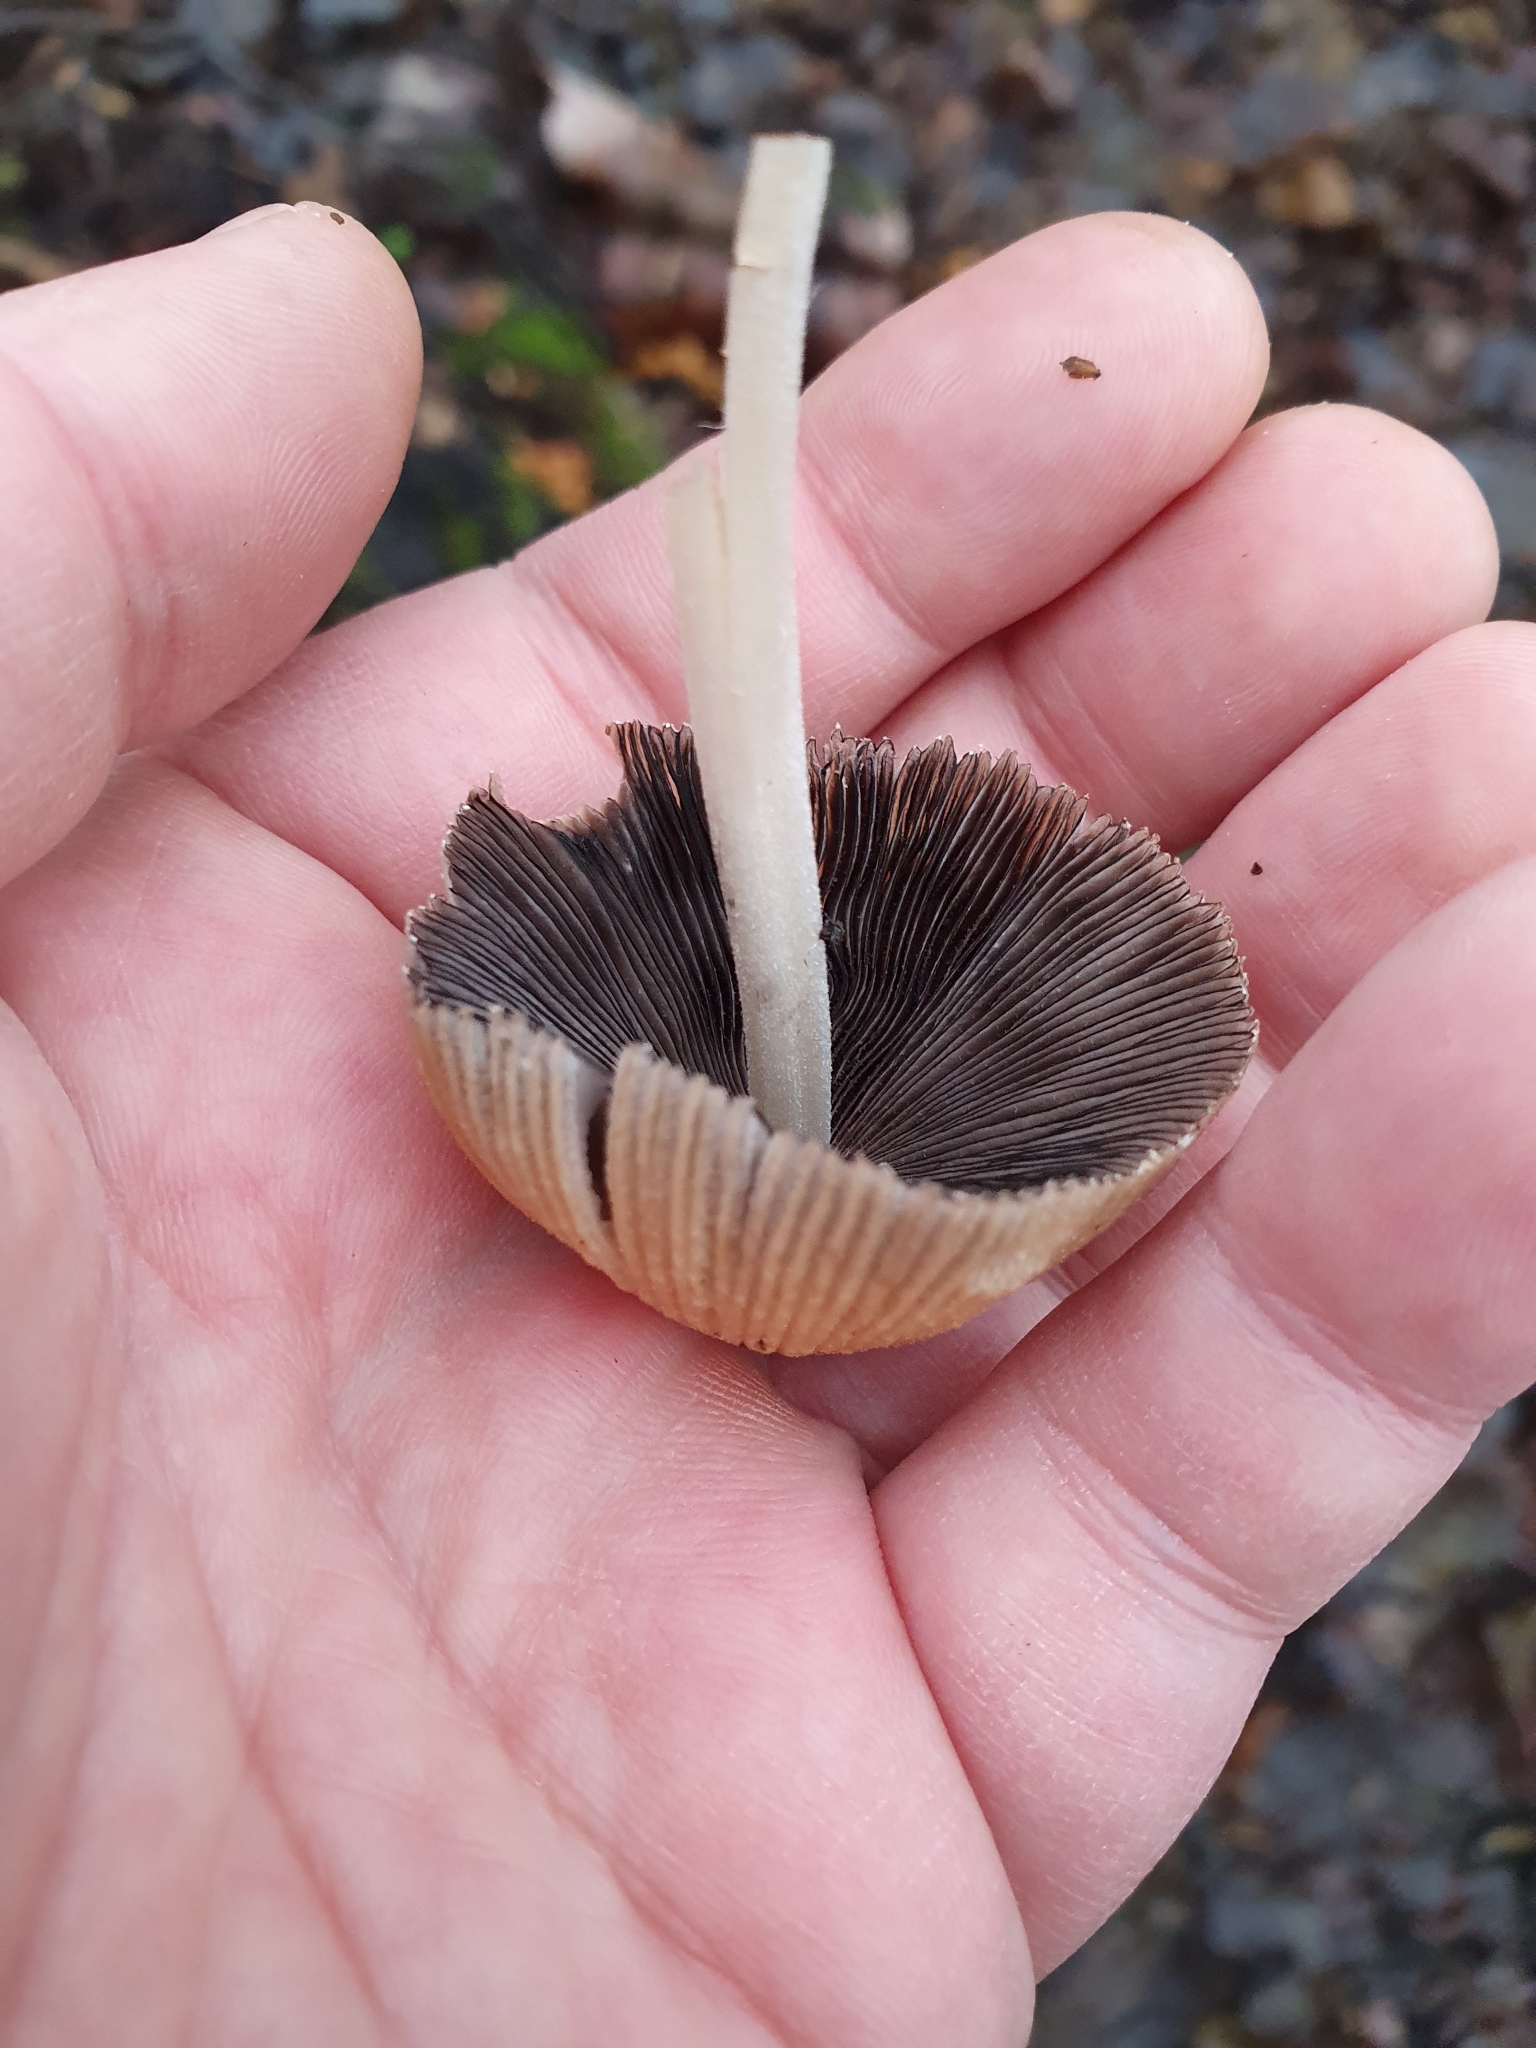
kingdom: Fungi
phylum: Basidiomycota
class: Agaricomycetes
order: Agaricales
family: Psathyrellaceae
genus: Coprinellus
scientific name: Coprinellus micaceus
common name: Glistening ink-cap
